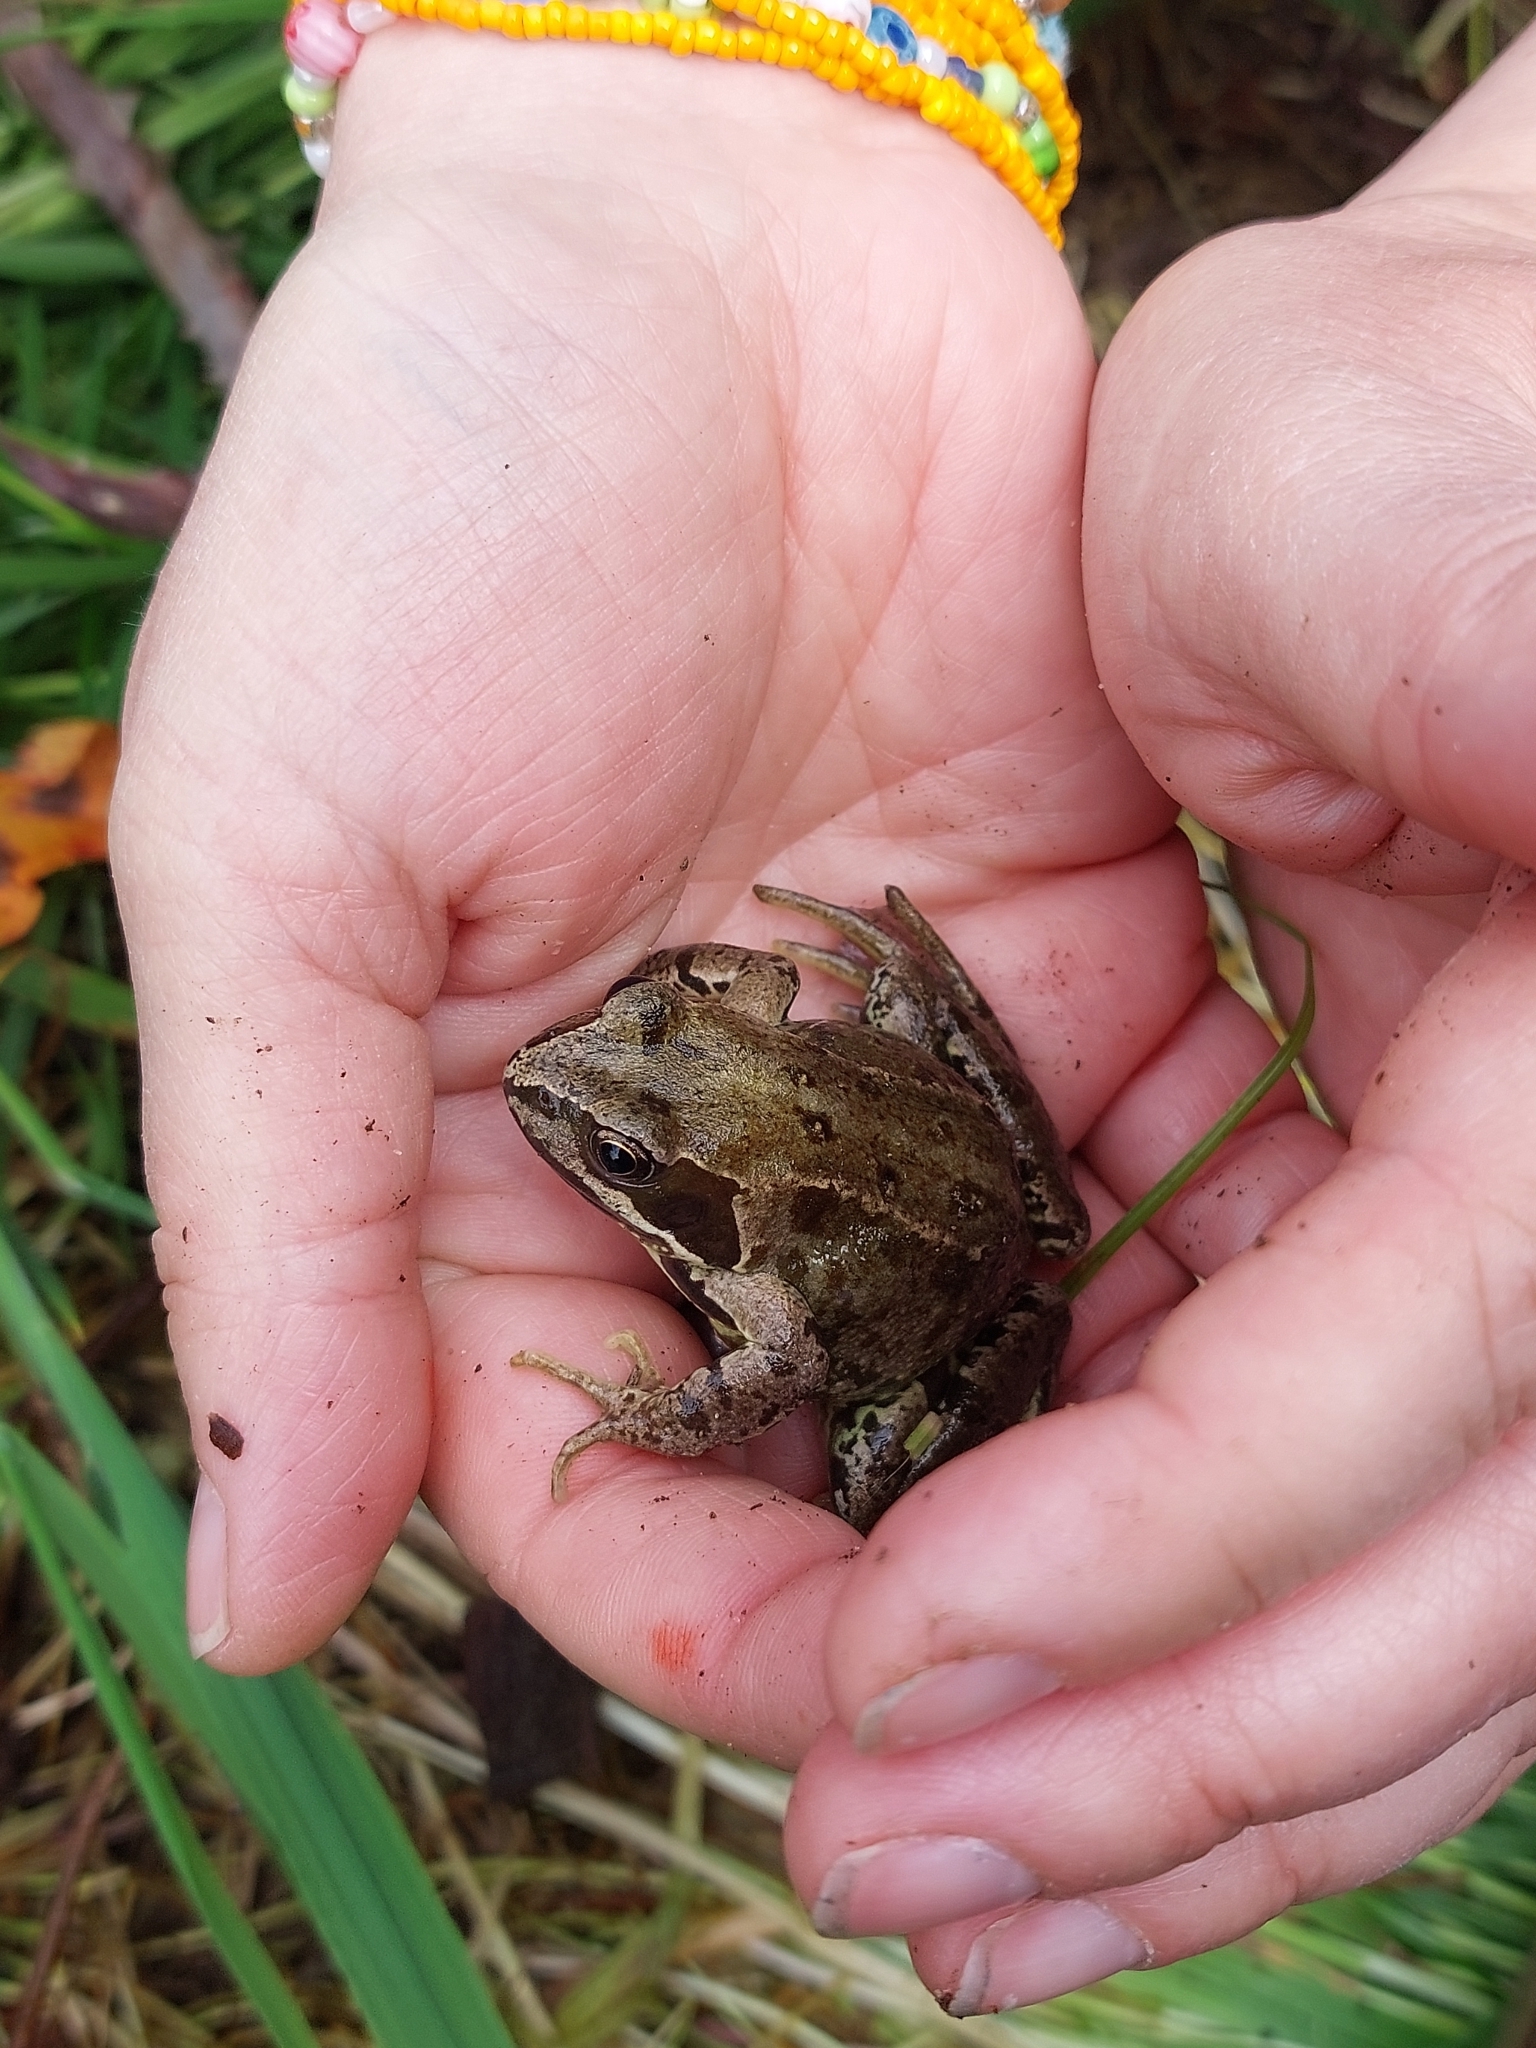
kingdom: Animalia
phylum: Chordata
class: Amphibia
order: Anura
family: Ranidae
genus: Rana
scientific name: Rana temporaria
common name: Common frog
